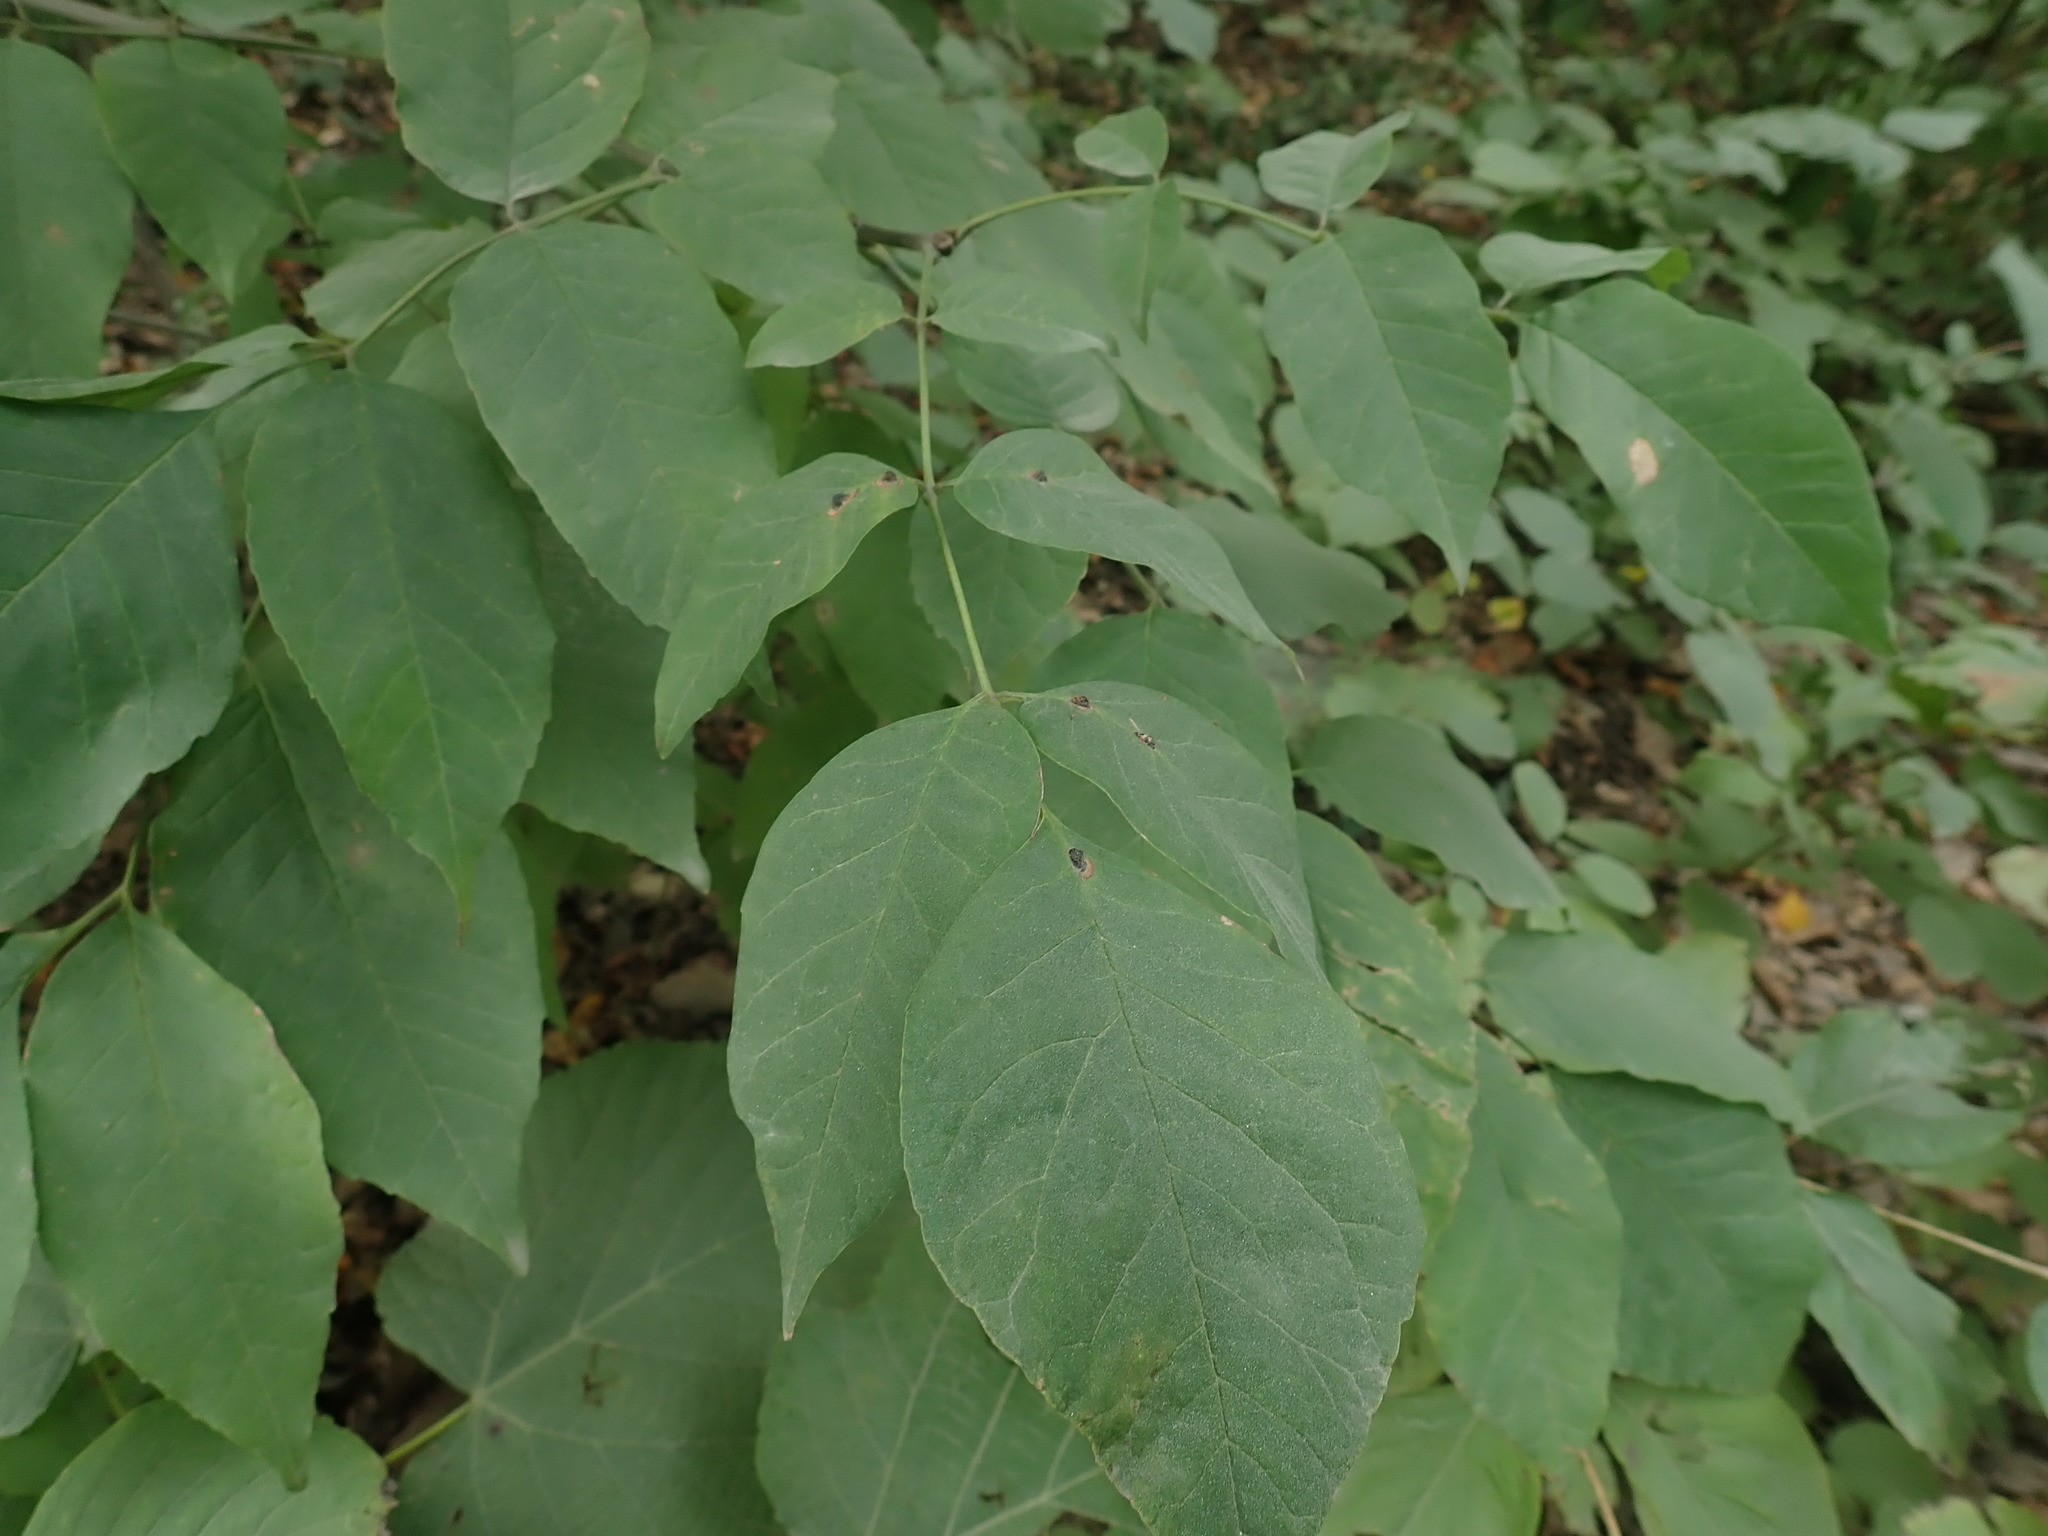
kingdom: Animalia
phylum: Arthropoda
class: Insecta
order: Diptera
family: Cecidomyiidae
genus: Dasineura
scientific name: Dasineura pellex
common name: Ash bullet gall midge
